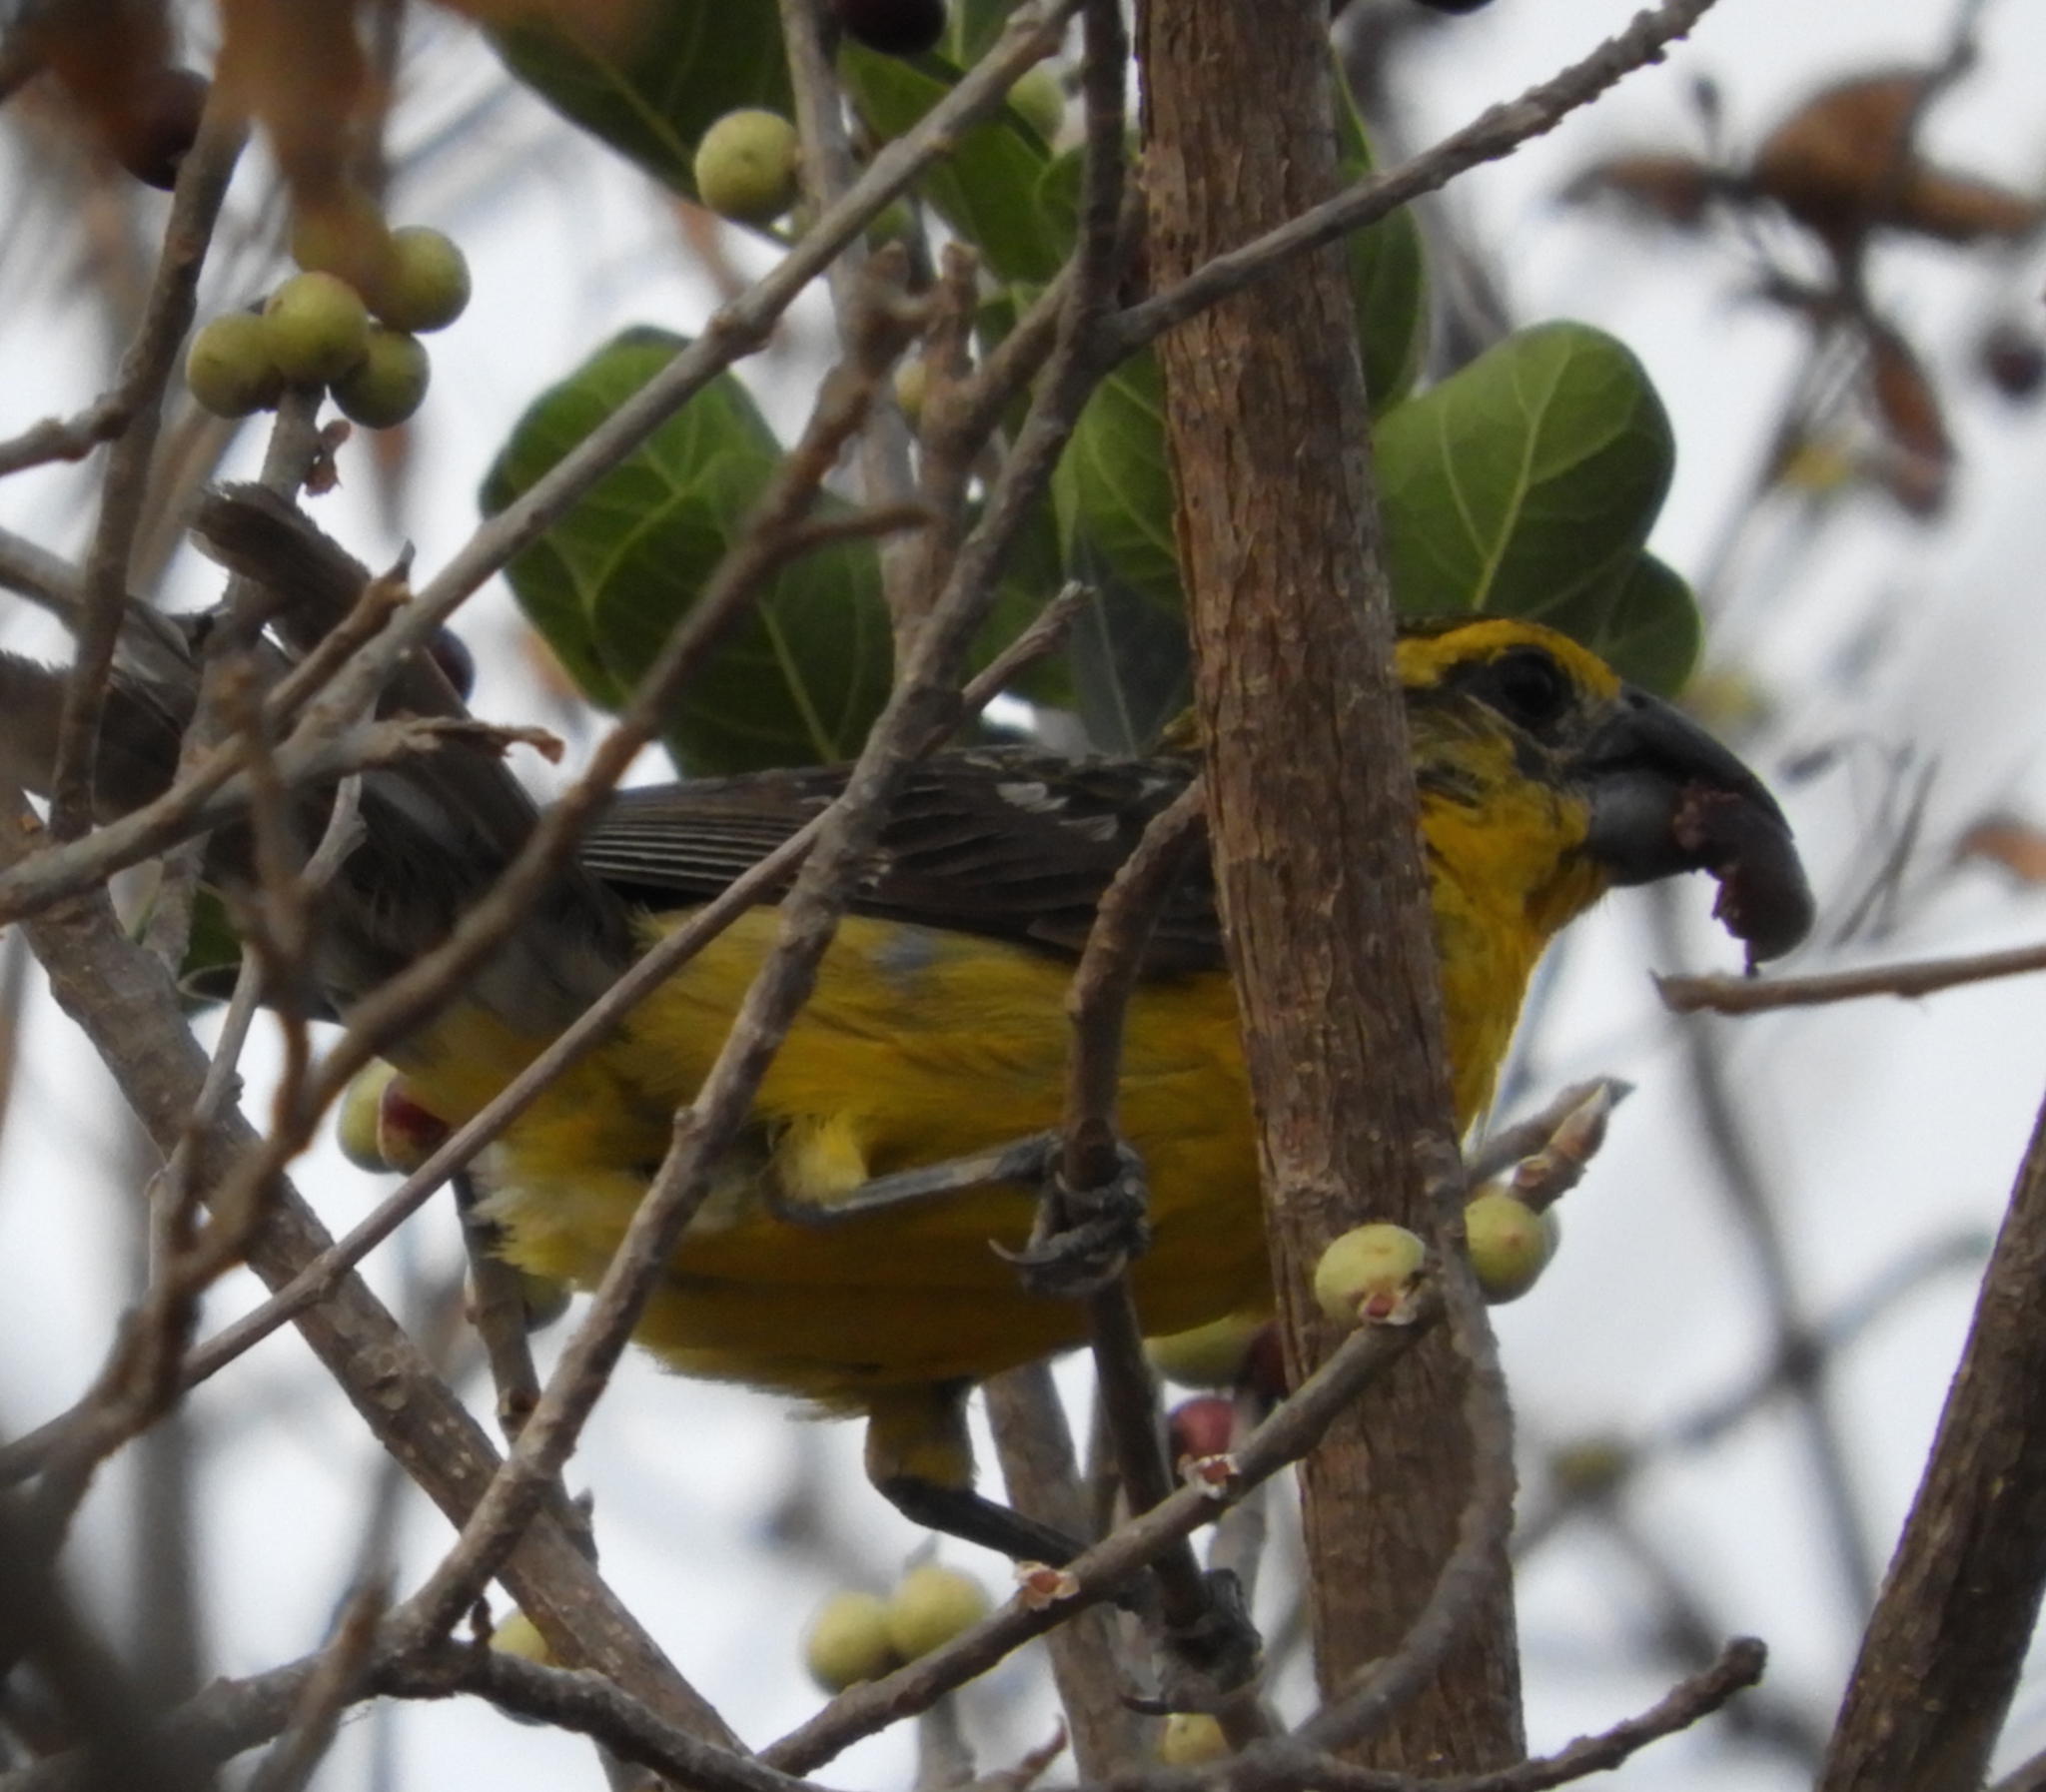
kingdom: Animalia
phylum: Chordata
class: Aves
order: Passeriformes
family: Cardinalidae
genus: Pheucticus
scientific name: Pheucticus chrysopeplus
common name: Yellow grosbeak
